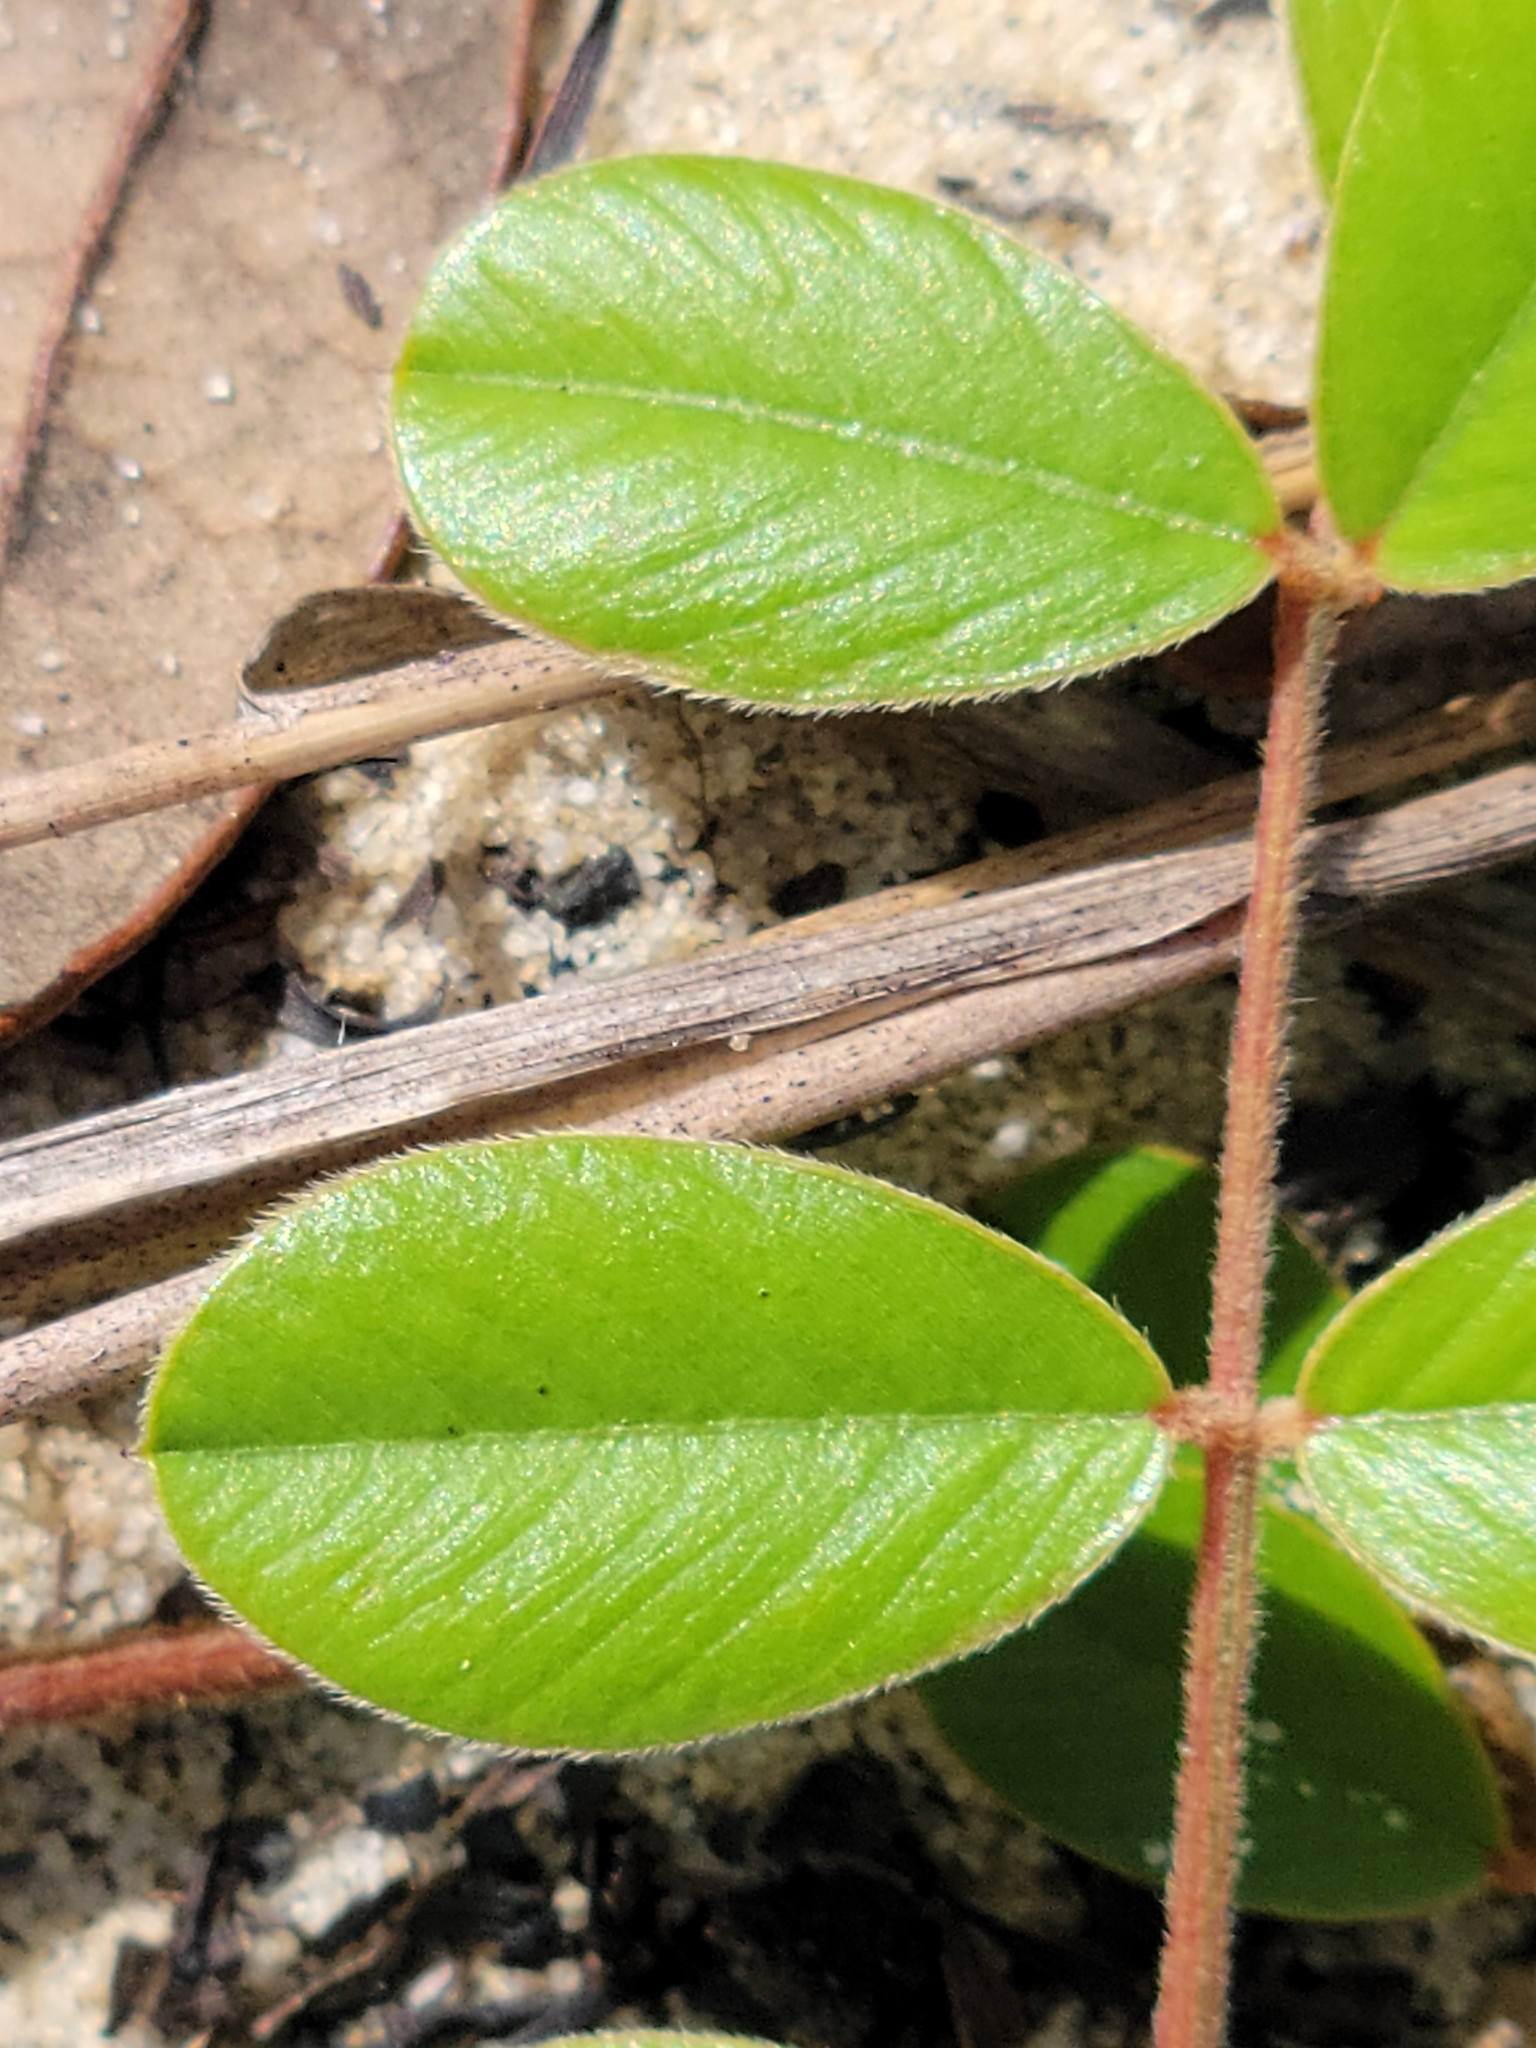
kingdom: Plantae
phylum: Tracheophyta
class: Magnoliopsida
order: Fabales
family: Fabaceae
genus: Tephrosia
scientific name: Tephrosia mysteriosa
